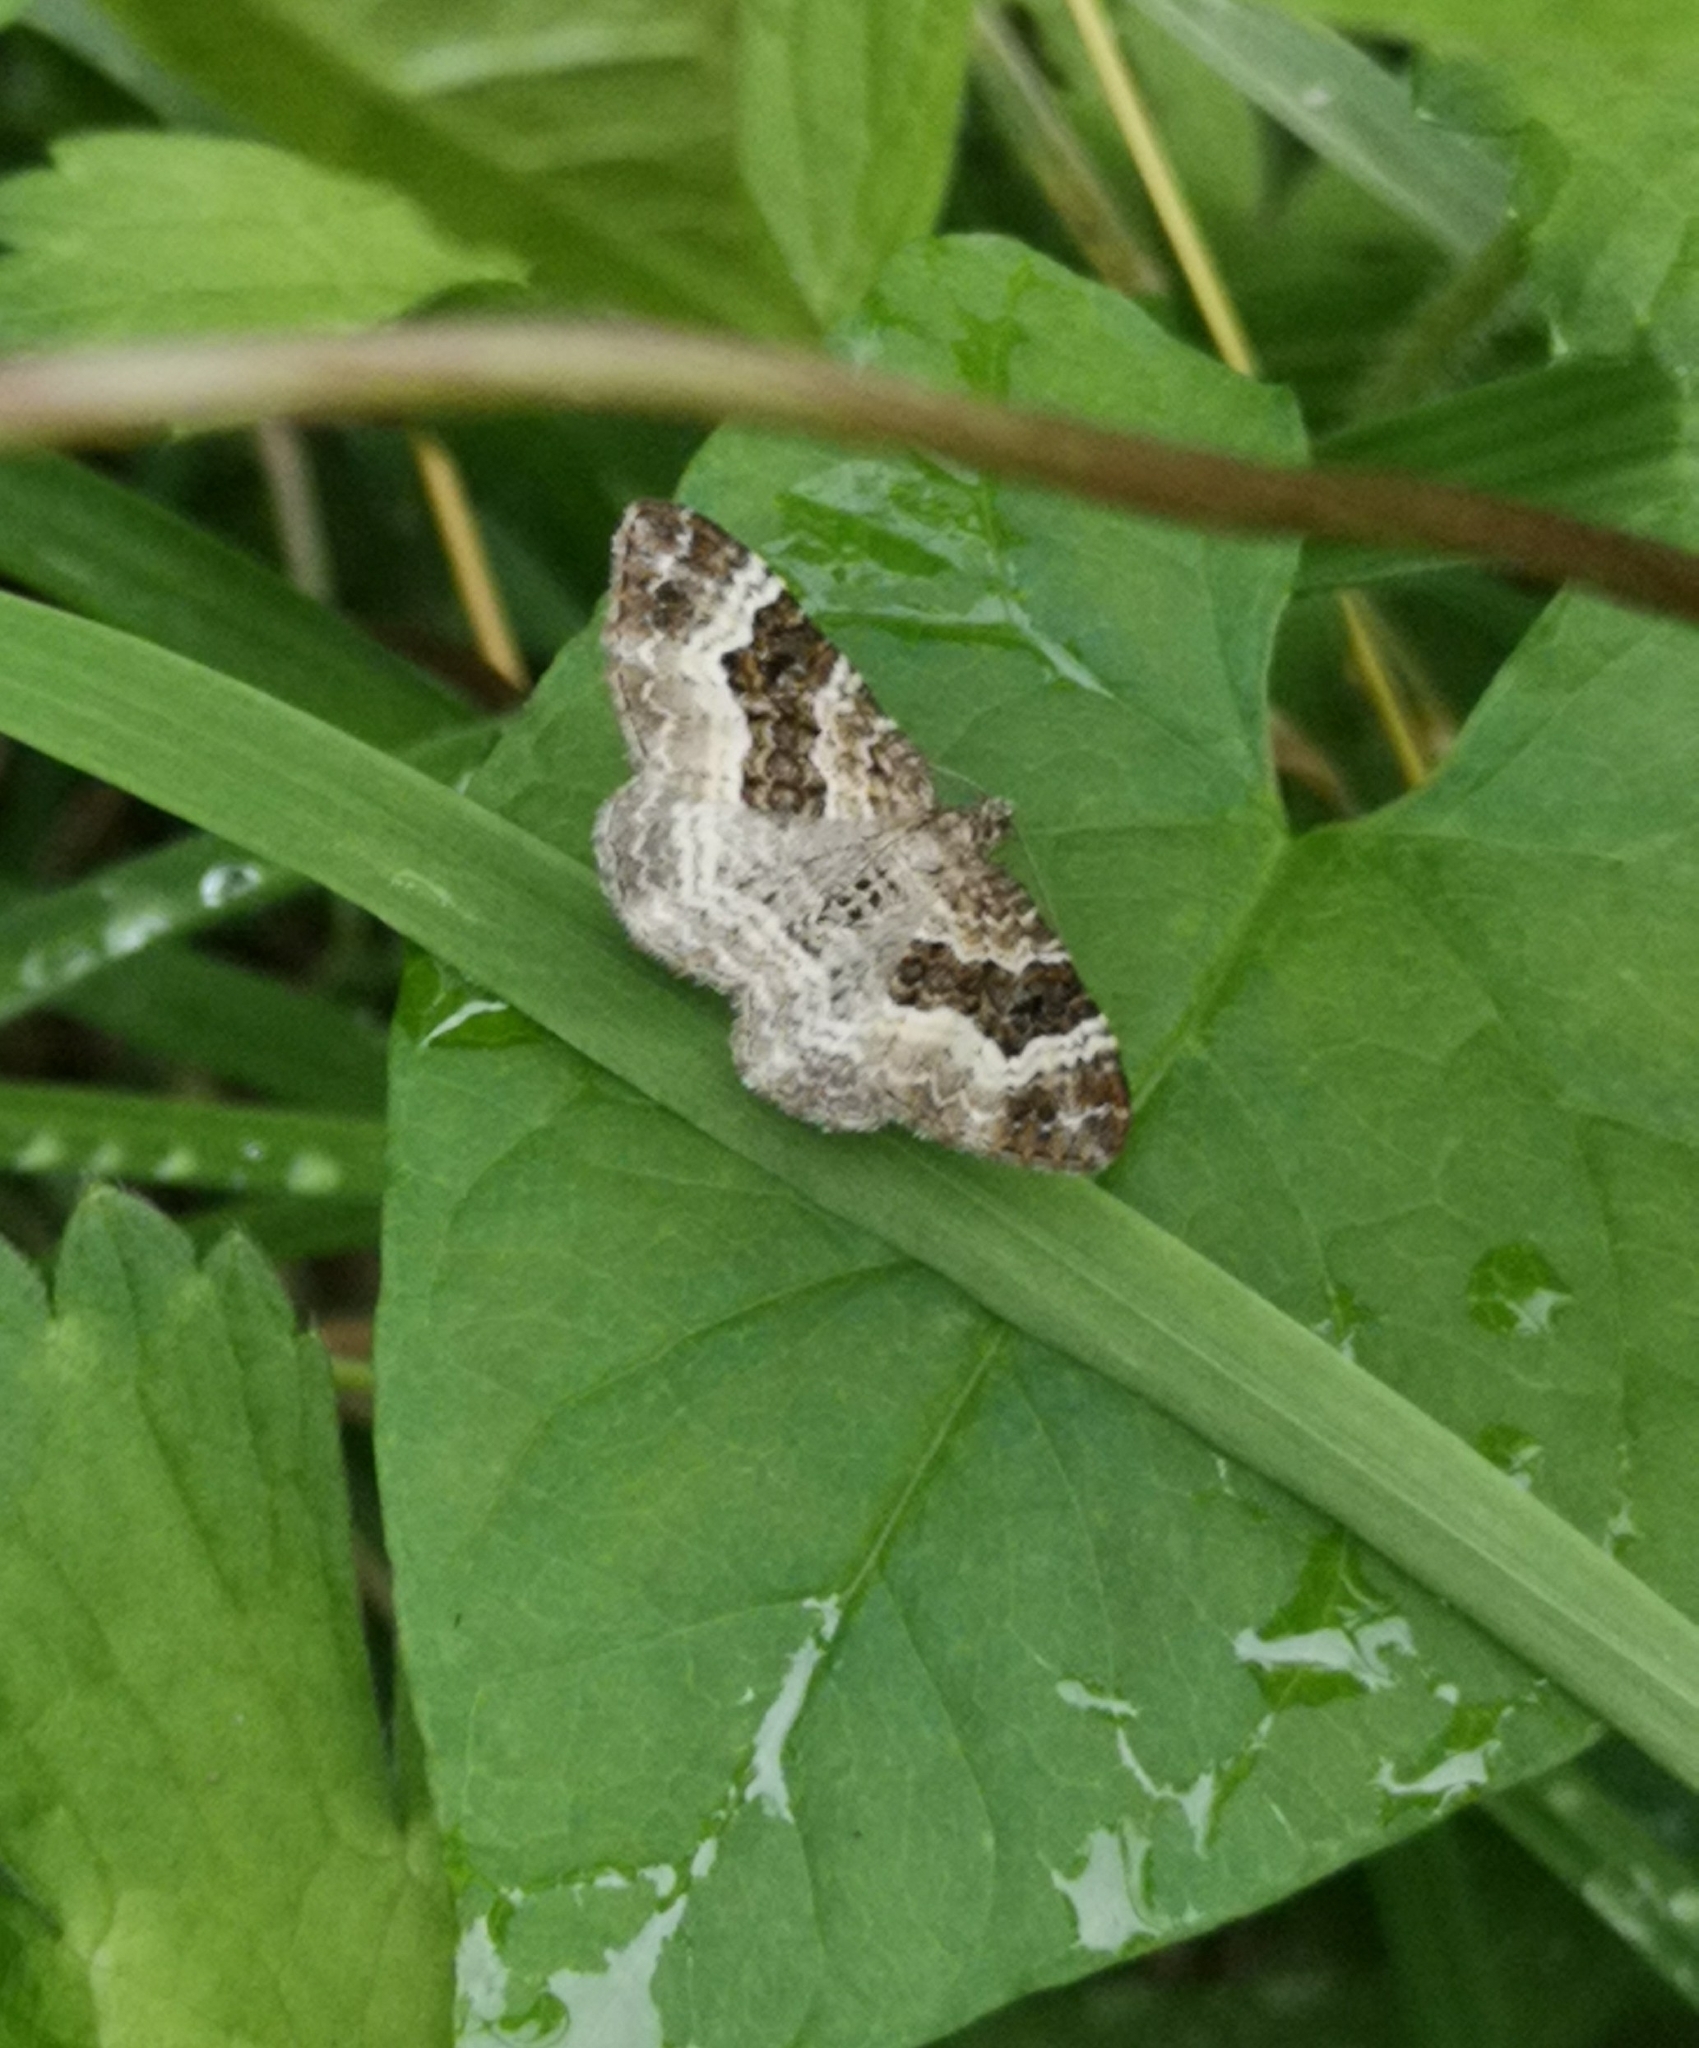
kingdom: Animalia
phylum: Arthropoda
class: Insecta
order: Lepidoptera
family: Geometridae
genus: Epirrhoe
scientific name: Epirrhoe alternata
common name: Common carpet
